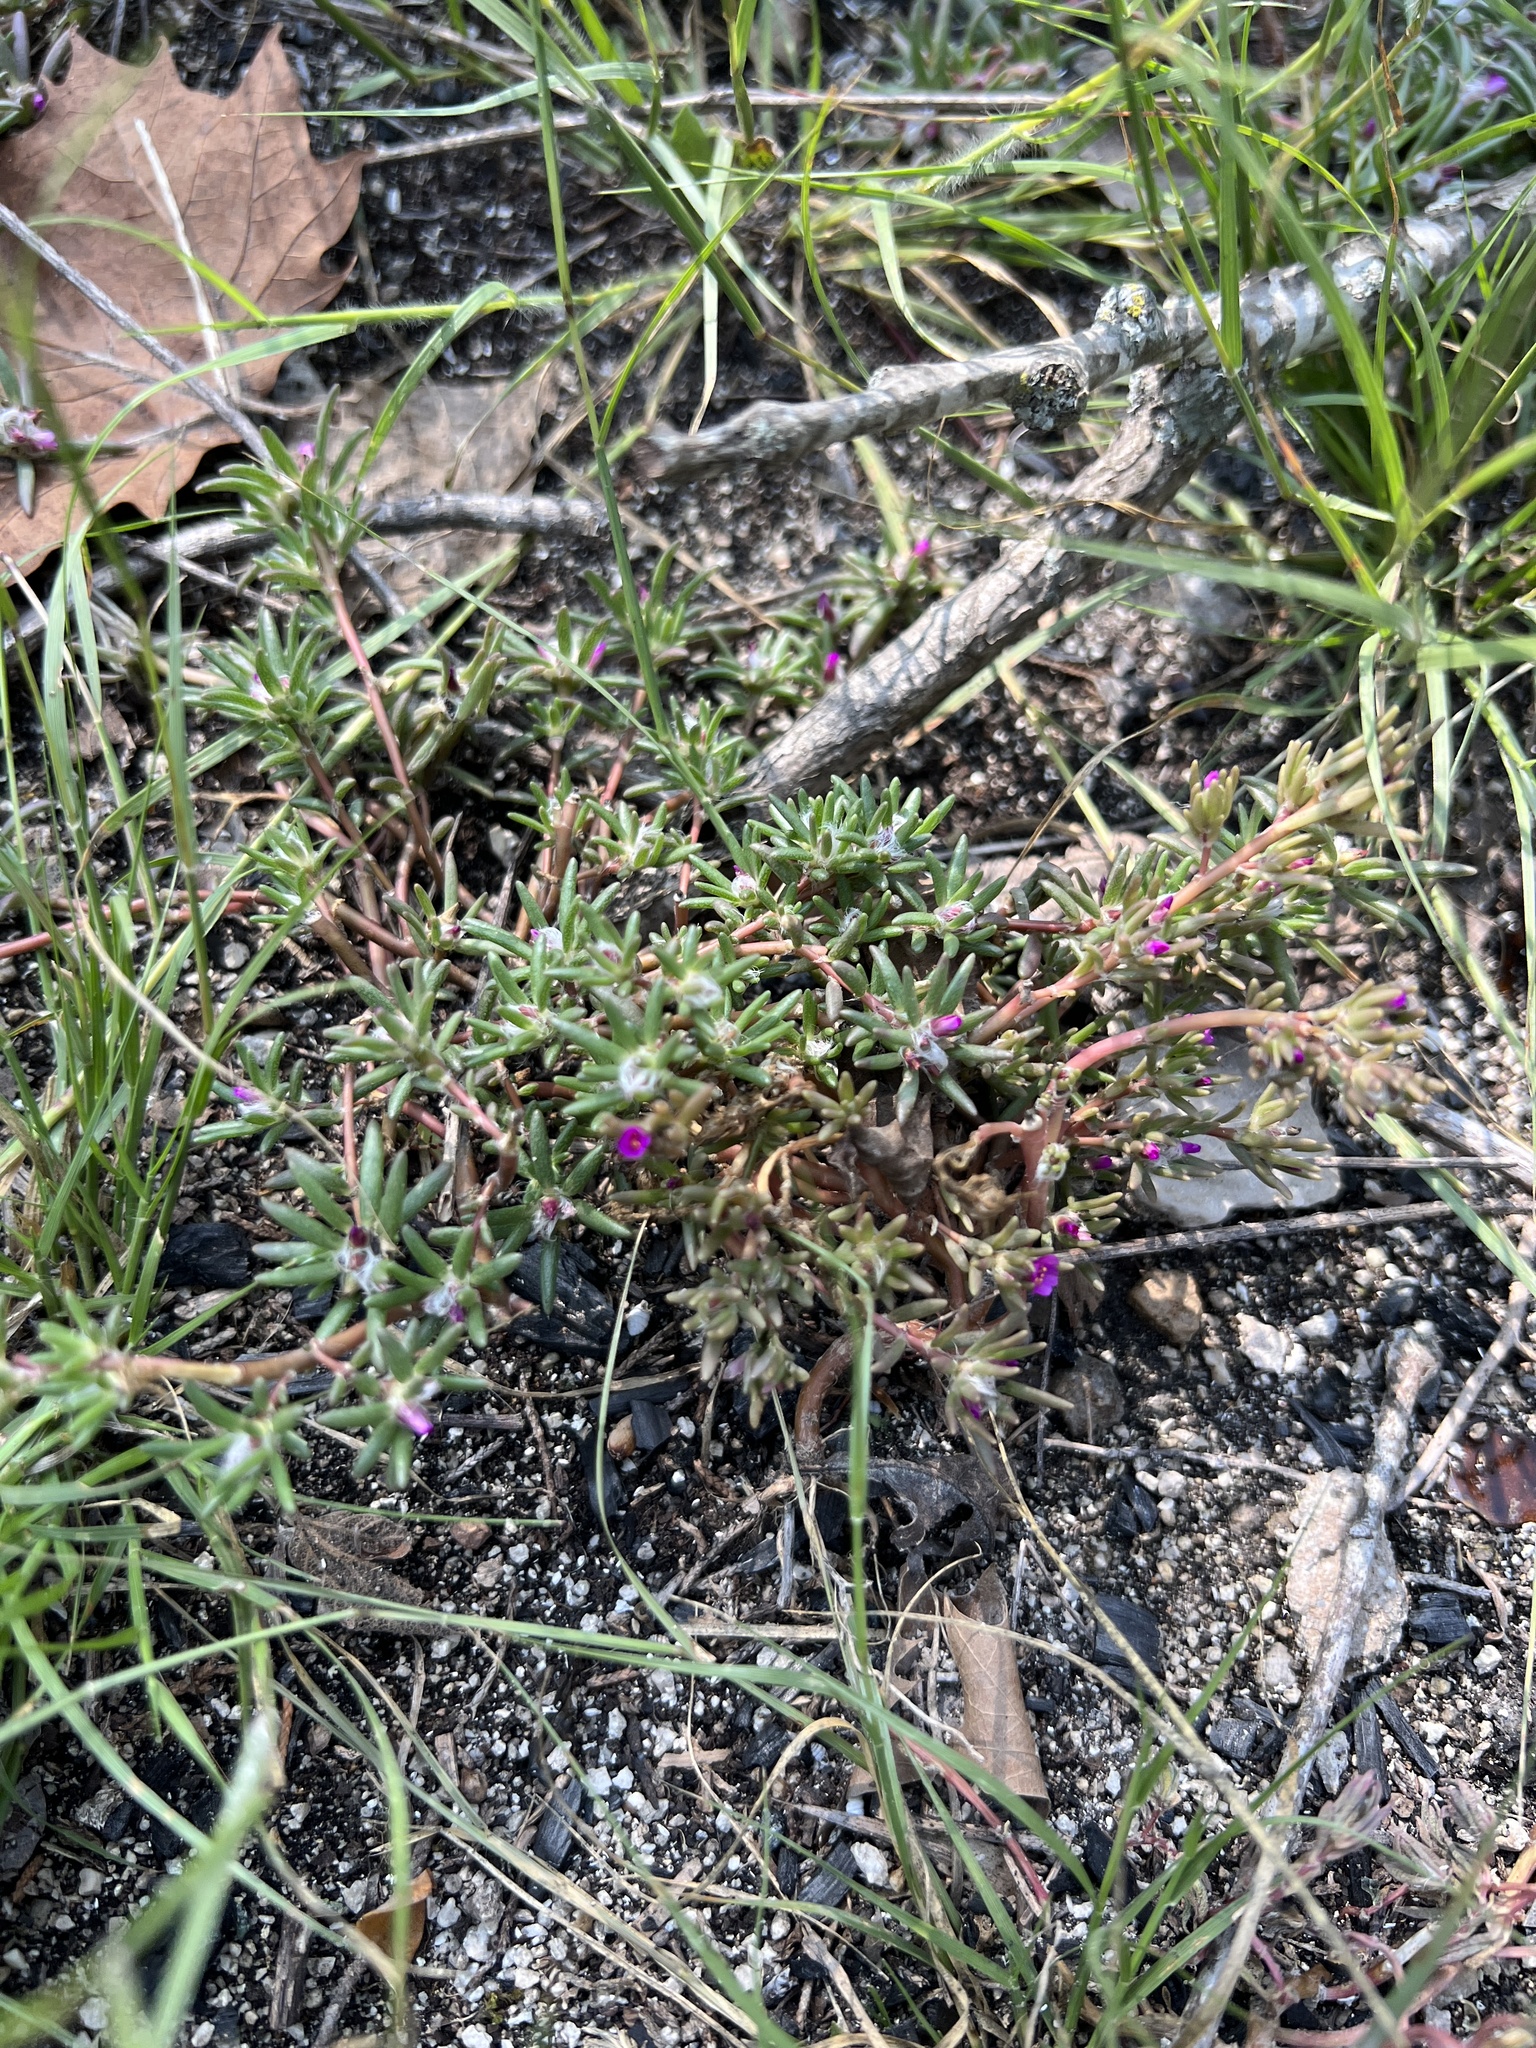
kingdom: Plantae
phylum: Tracheophyta
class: Magnoliopsida
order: Caryophyllales
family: Portulacaceae
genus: Portulaca
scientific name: Portulaca pilosa
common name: Kiss me quick
